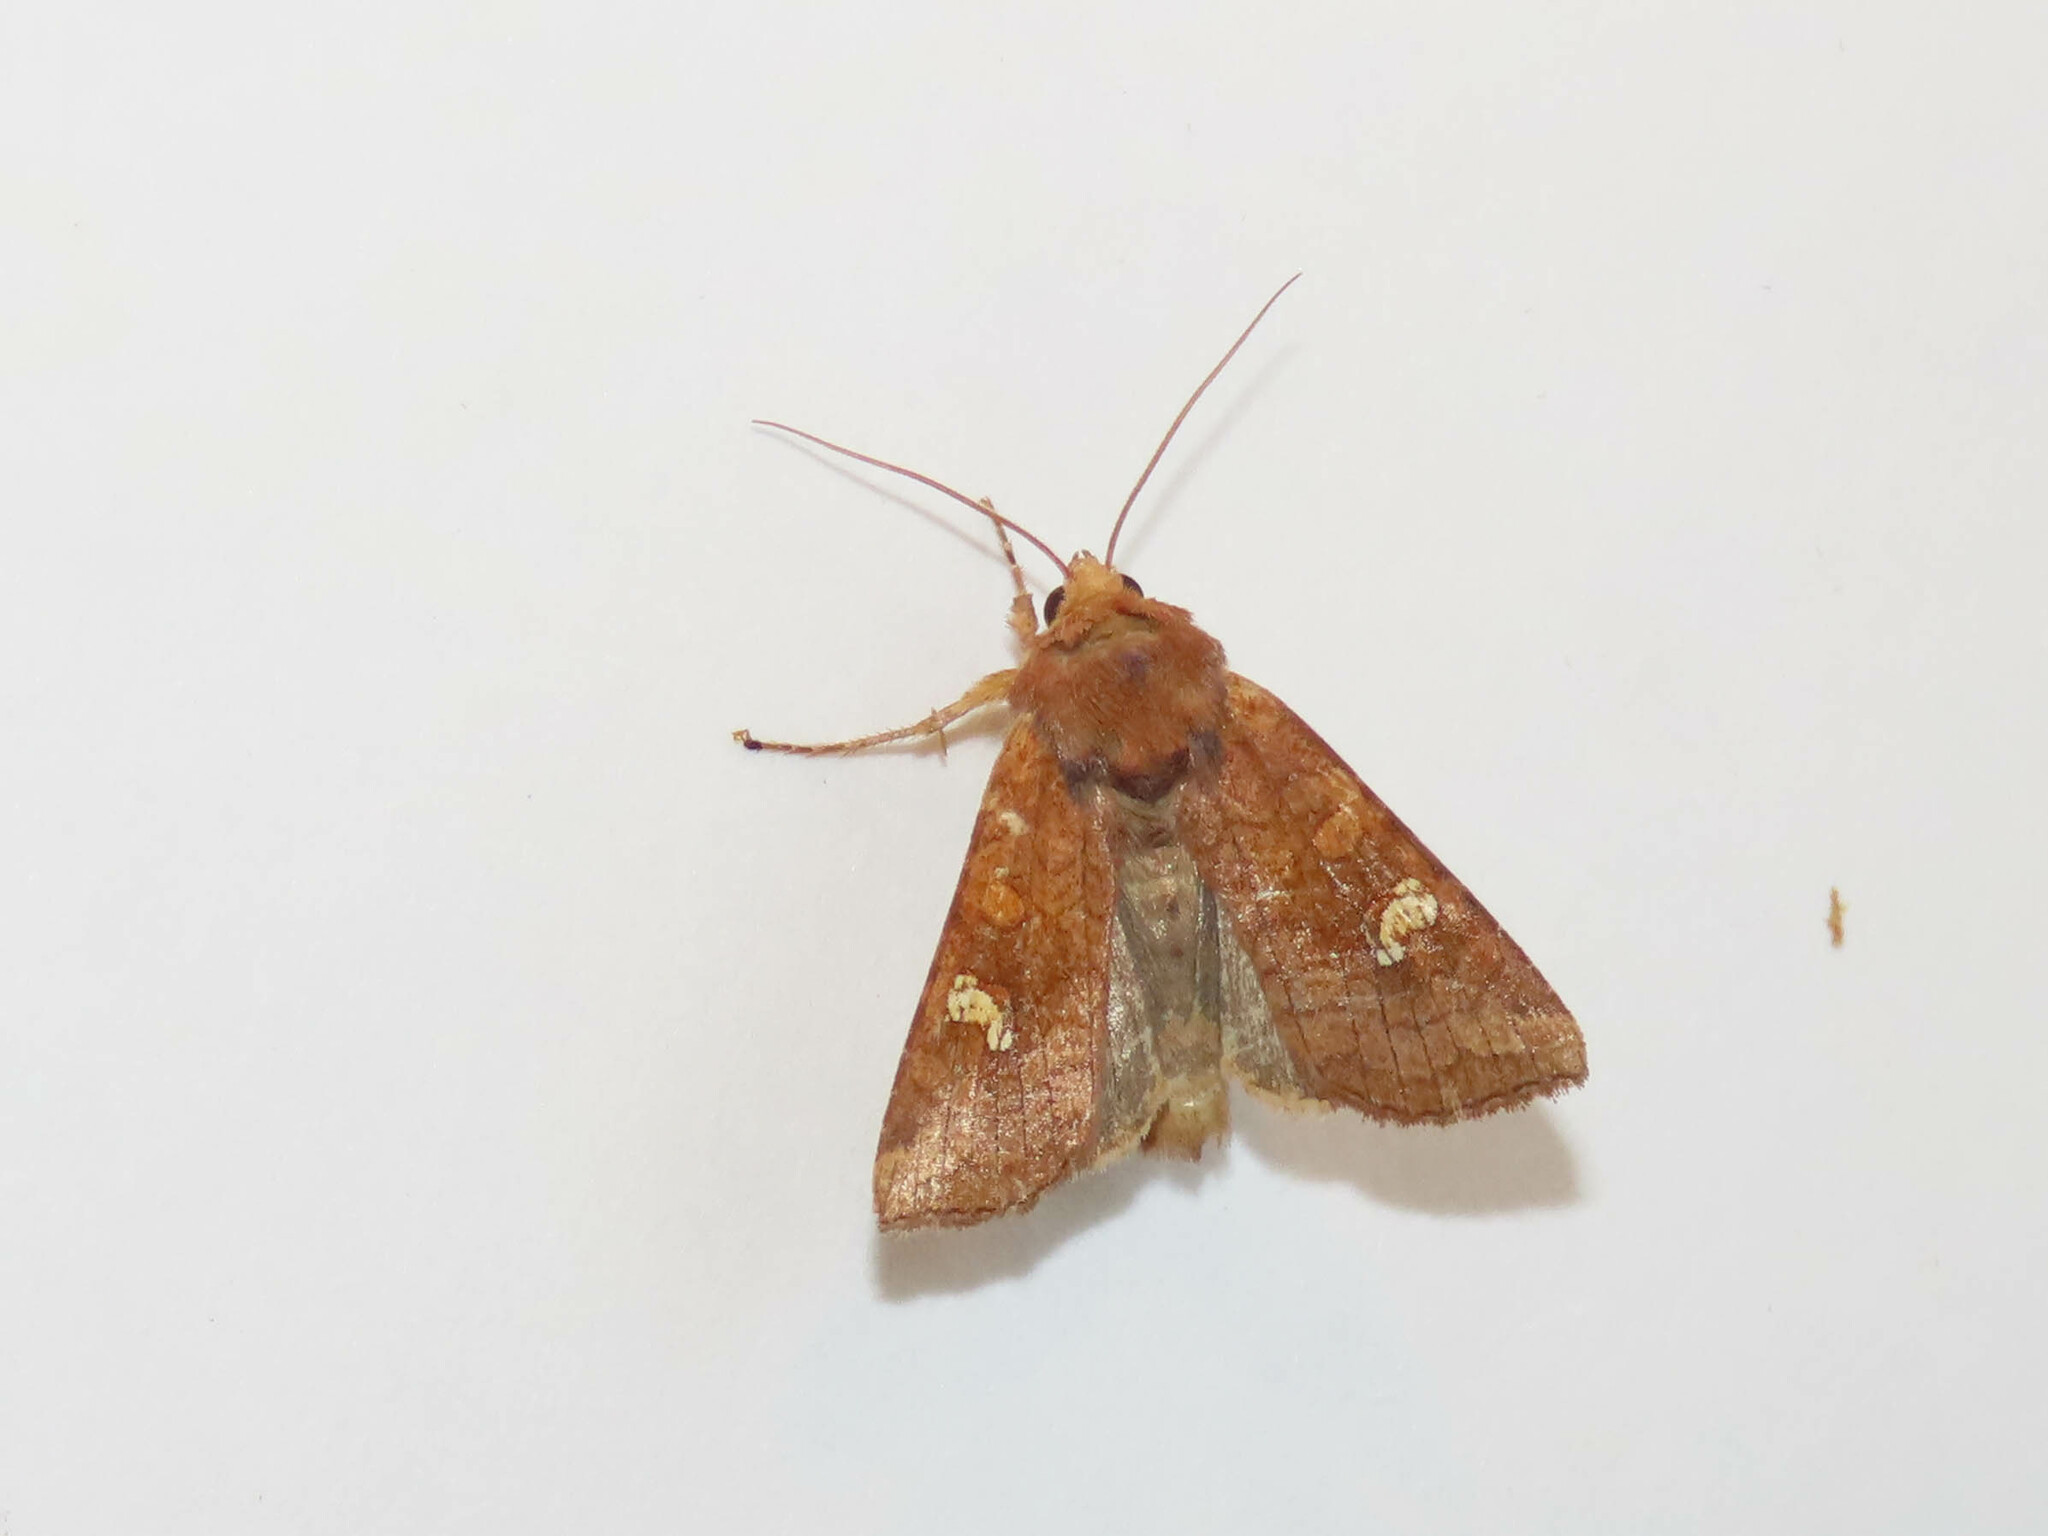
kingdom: Animalia
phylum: Arthropoda
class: Insecta
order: Lepidoptera
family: Noctuidae
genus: Amphipoea
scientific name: Amphipoea americana
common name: American ear moth
